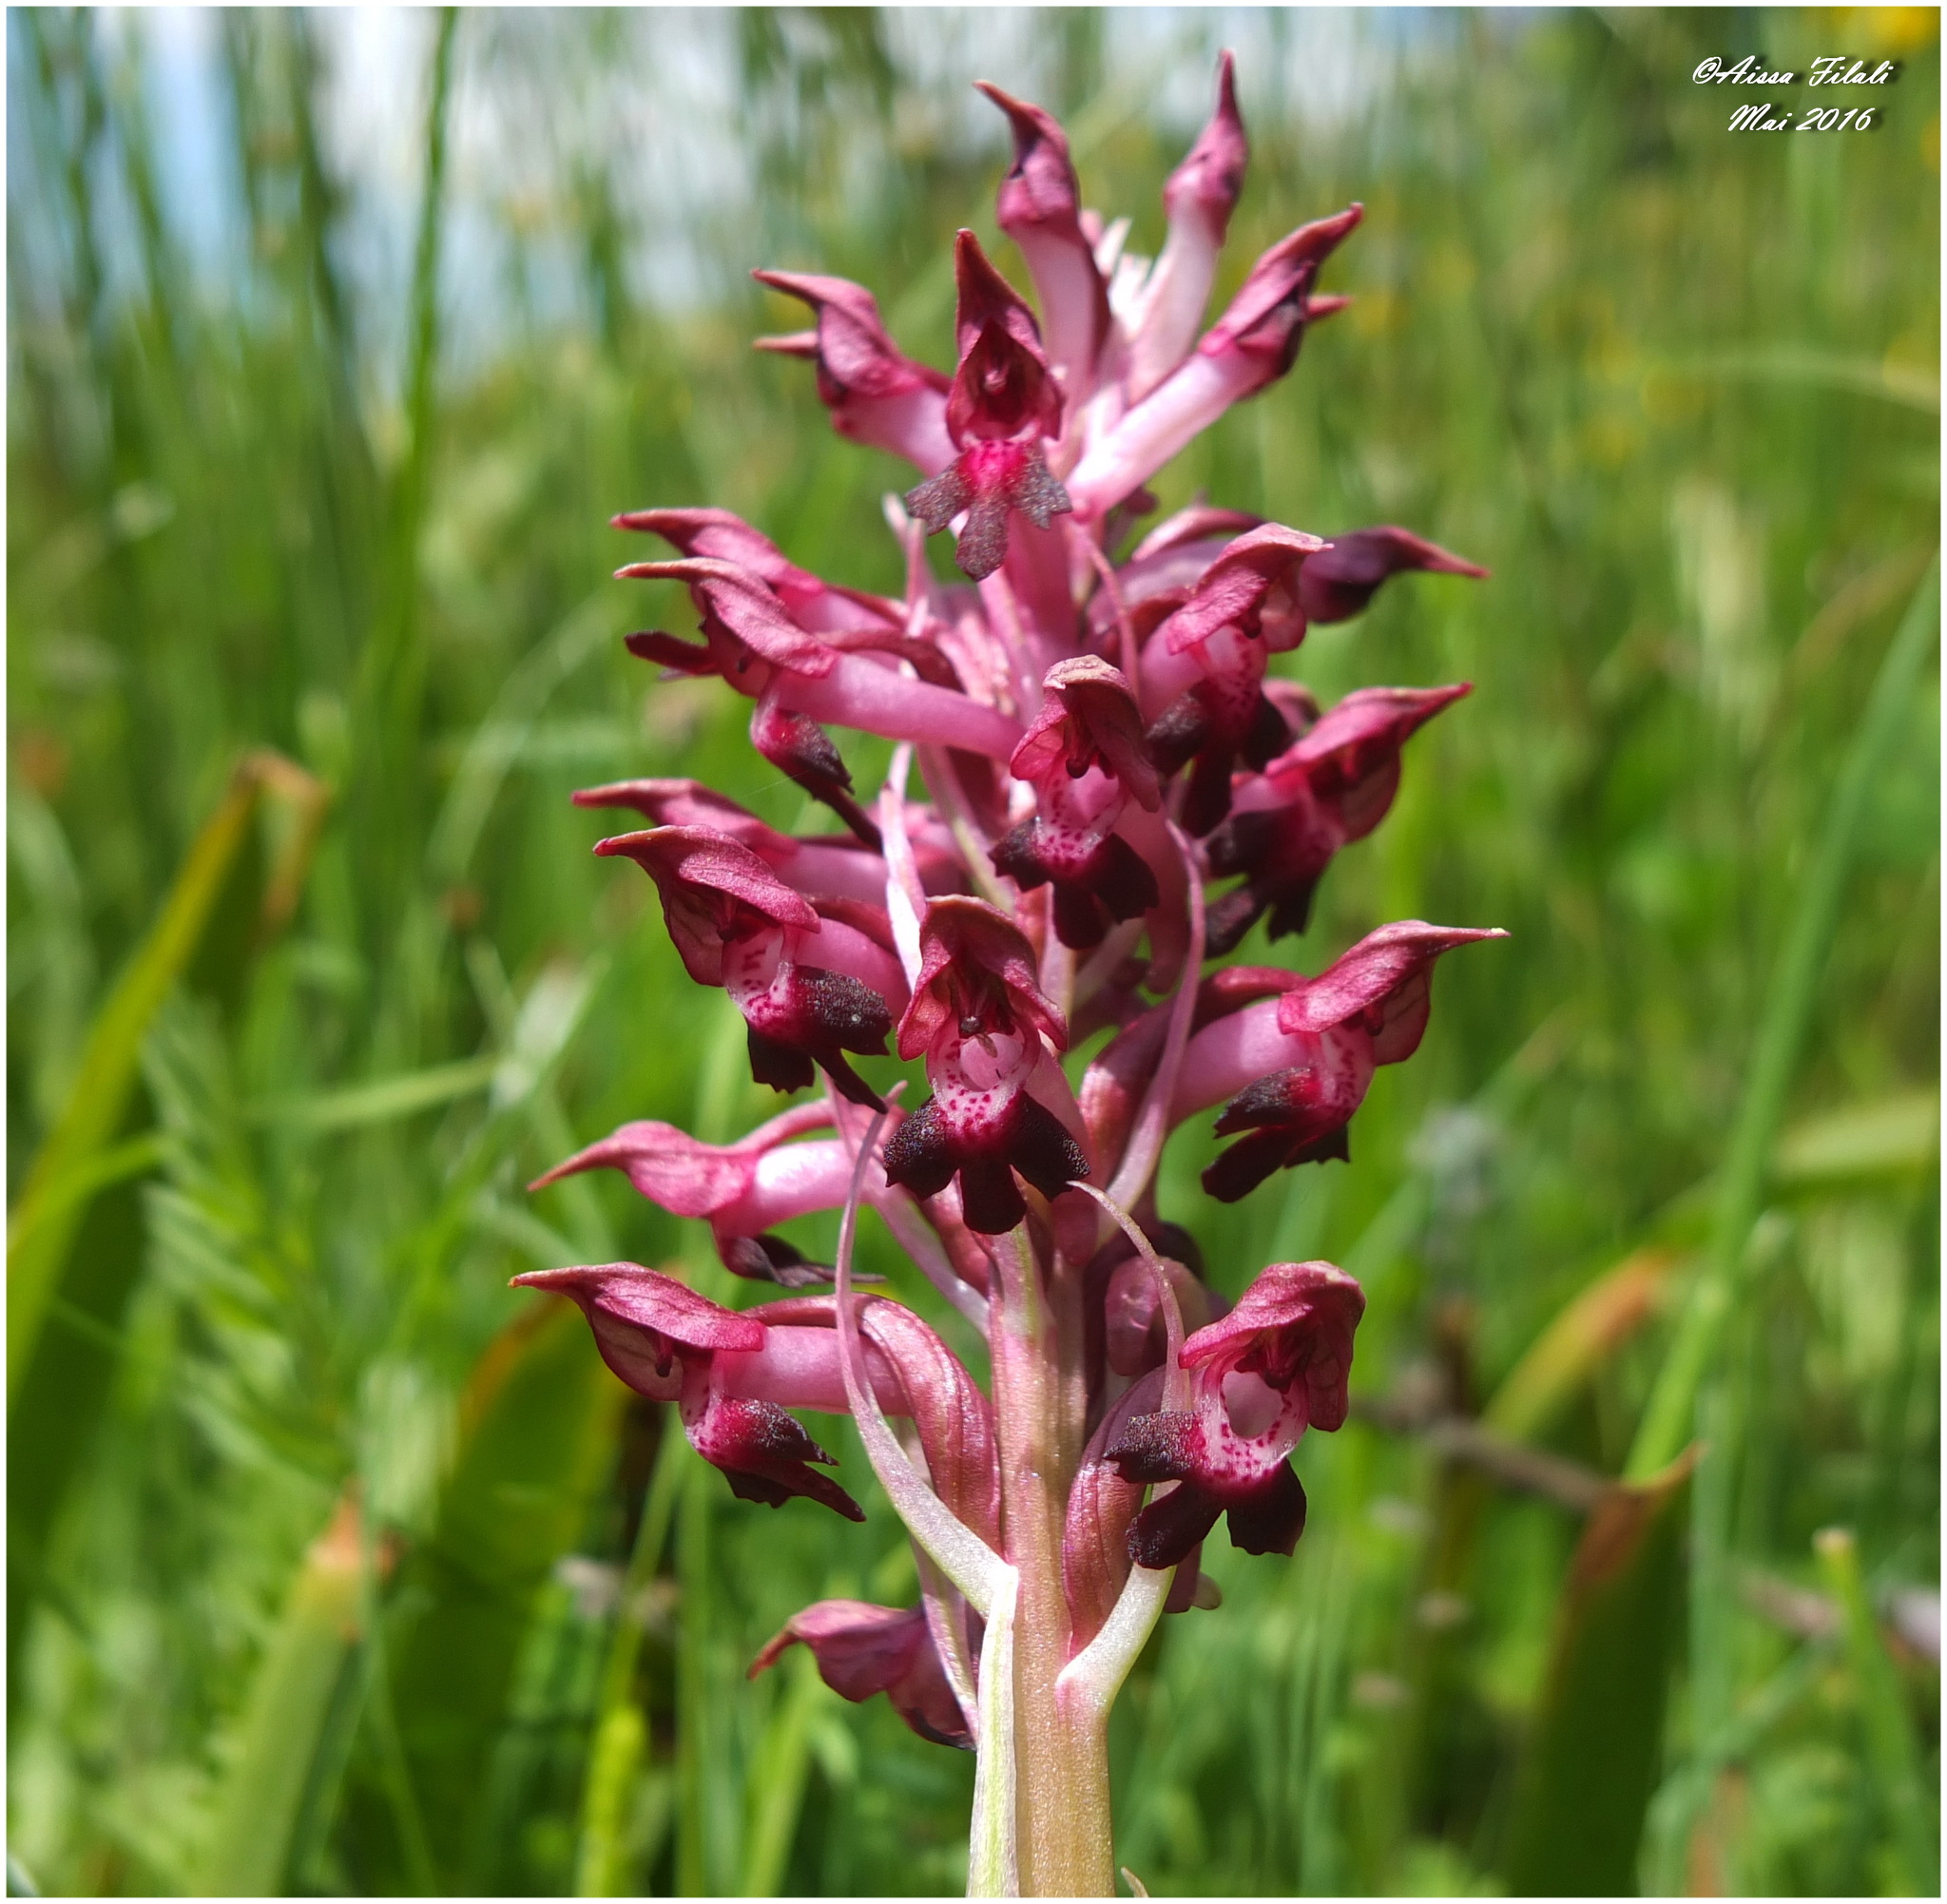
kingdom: Plantae
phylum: Tracheophyta
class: Liliopsida
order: Asparagales
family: Orchidaceae
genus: Anacamptis
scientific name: Anacamptis coriophora
